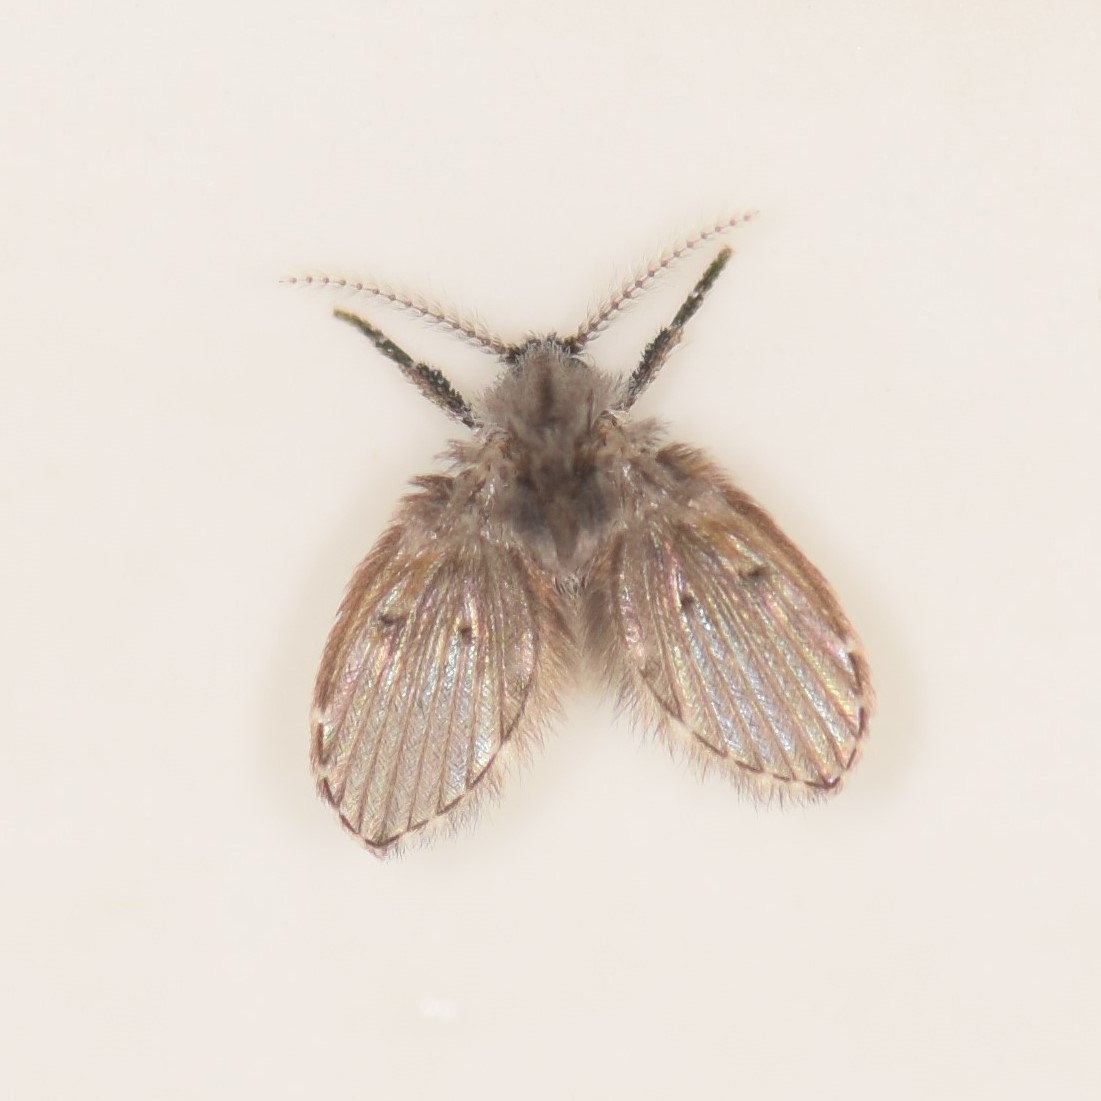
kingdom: Animalia
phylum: Arthropoda
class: Insecta
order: Diptera
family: Psychodidae
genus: Clogmia
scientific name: Clogmia albipunctatus
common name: White-spotted moth fly
